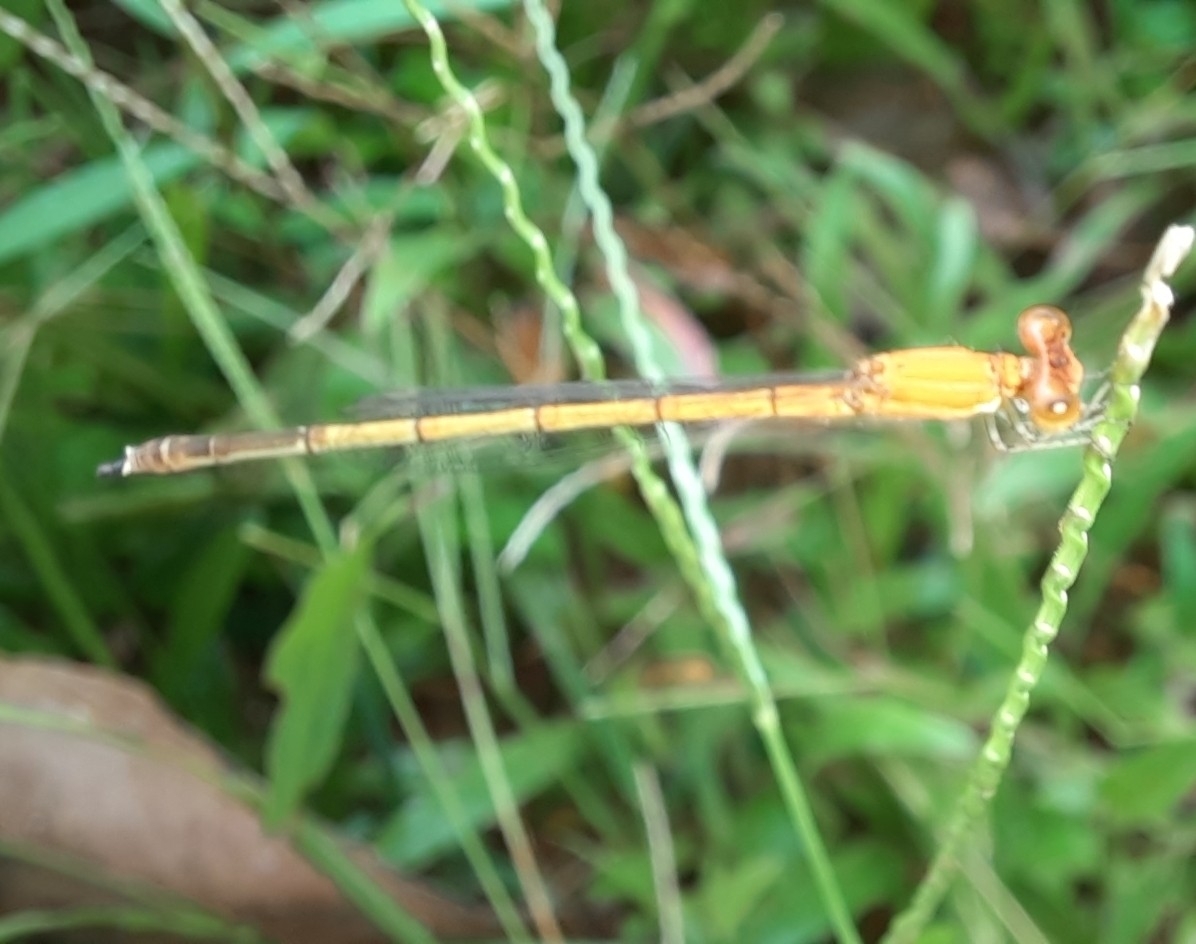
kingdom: Animalia
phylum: Arthropoda
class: Insecta
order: Odonata
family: Coenagrionidae
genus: Agriocnemis
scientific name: Agriocnemis pieris
